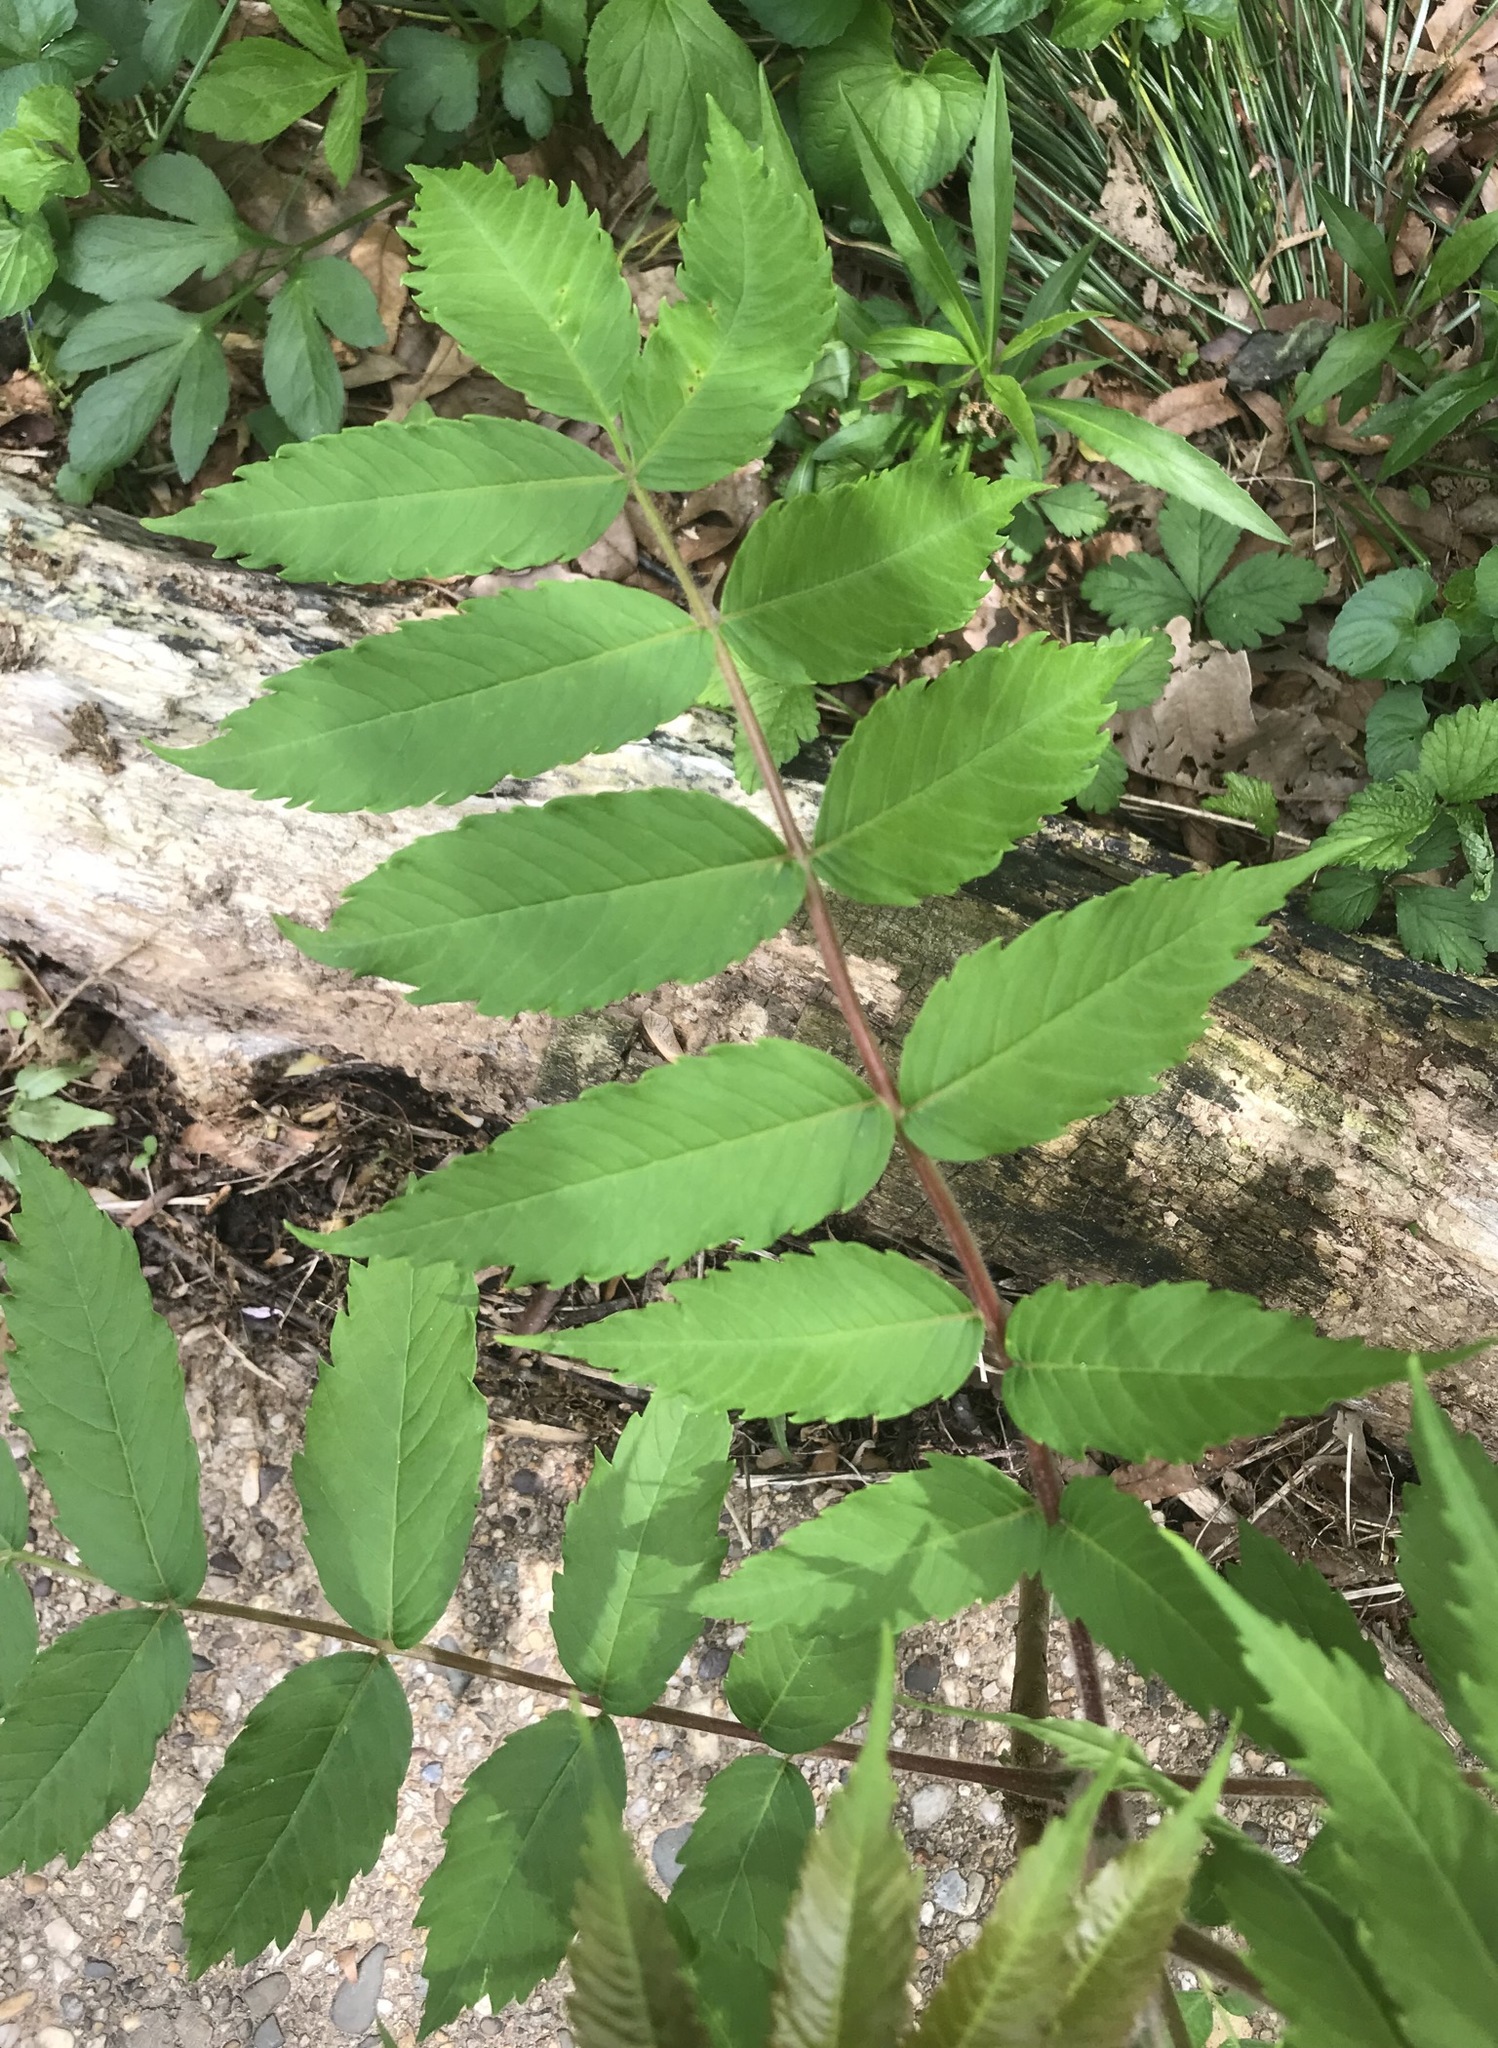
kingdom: Plantae
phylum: Tracheophyta
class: Magnoliopsida
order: Sapindales
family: Anacardiaceae
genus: Rhus
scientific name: Rhus typhina
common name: Staghorn sumac
